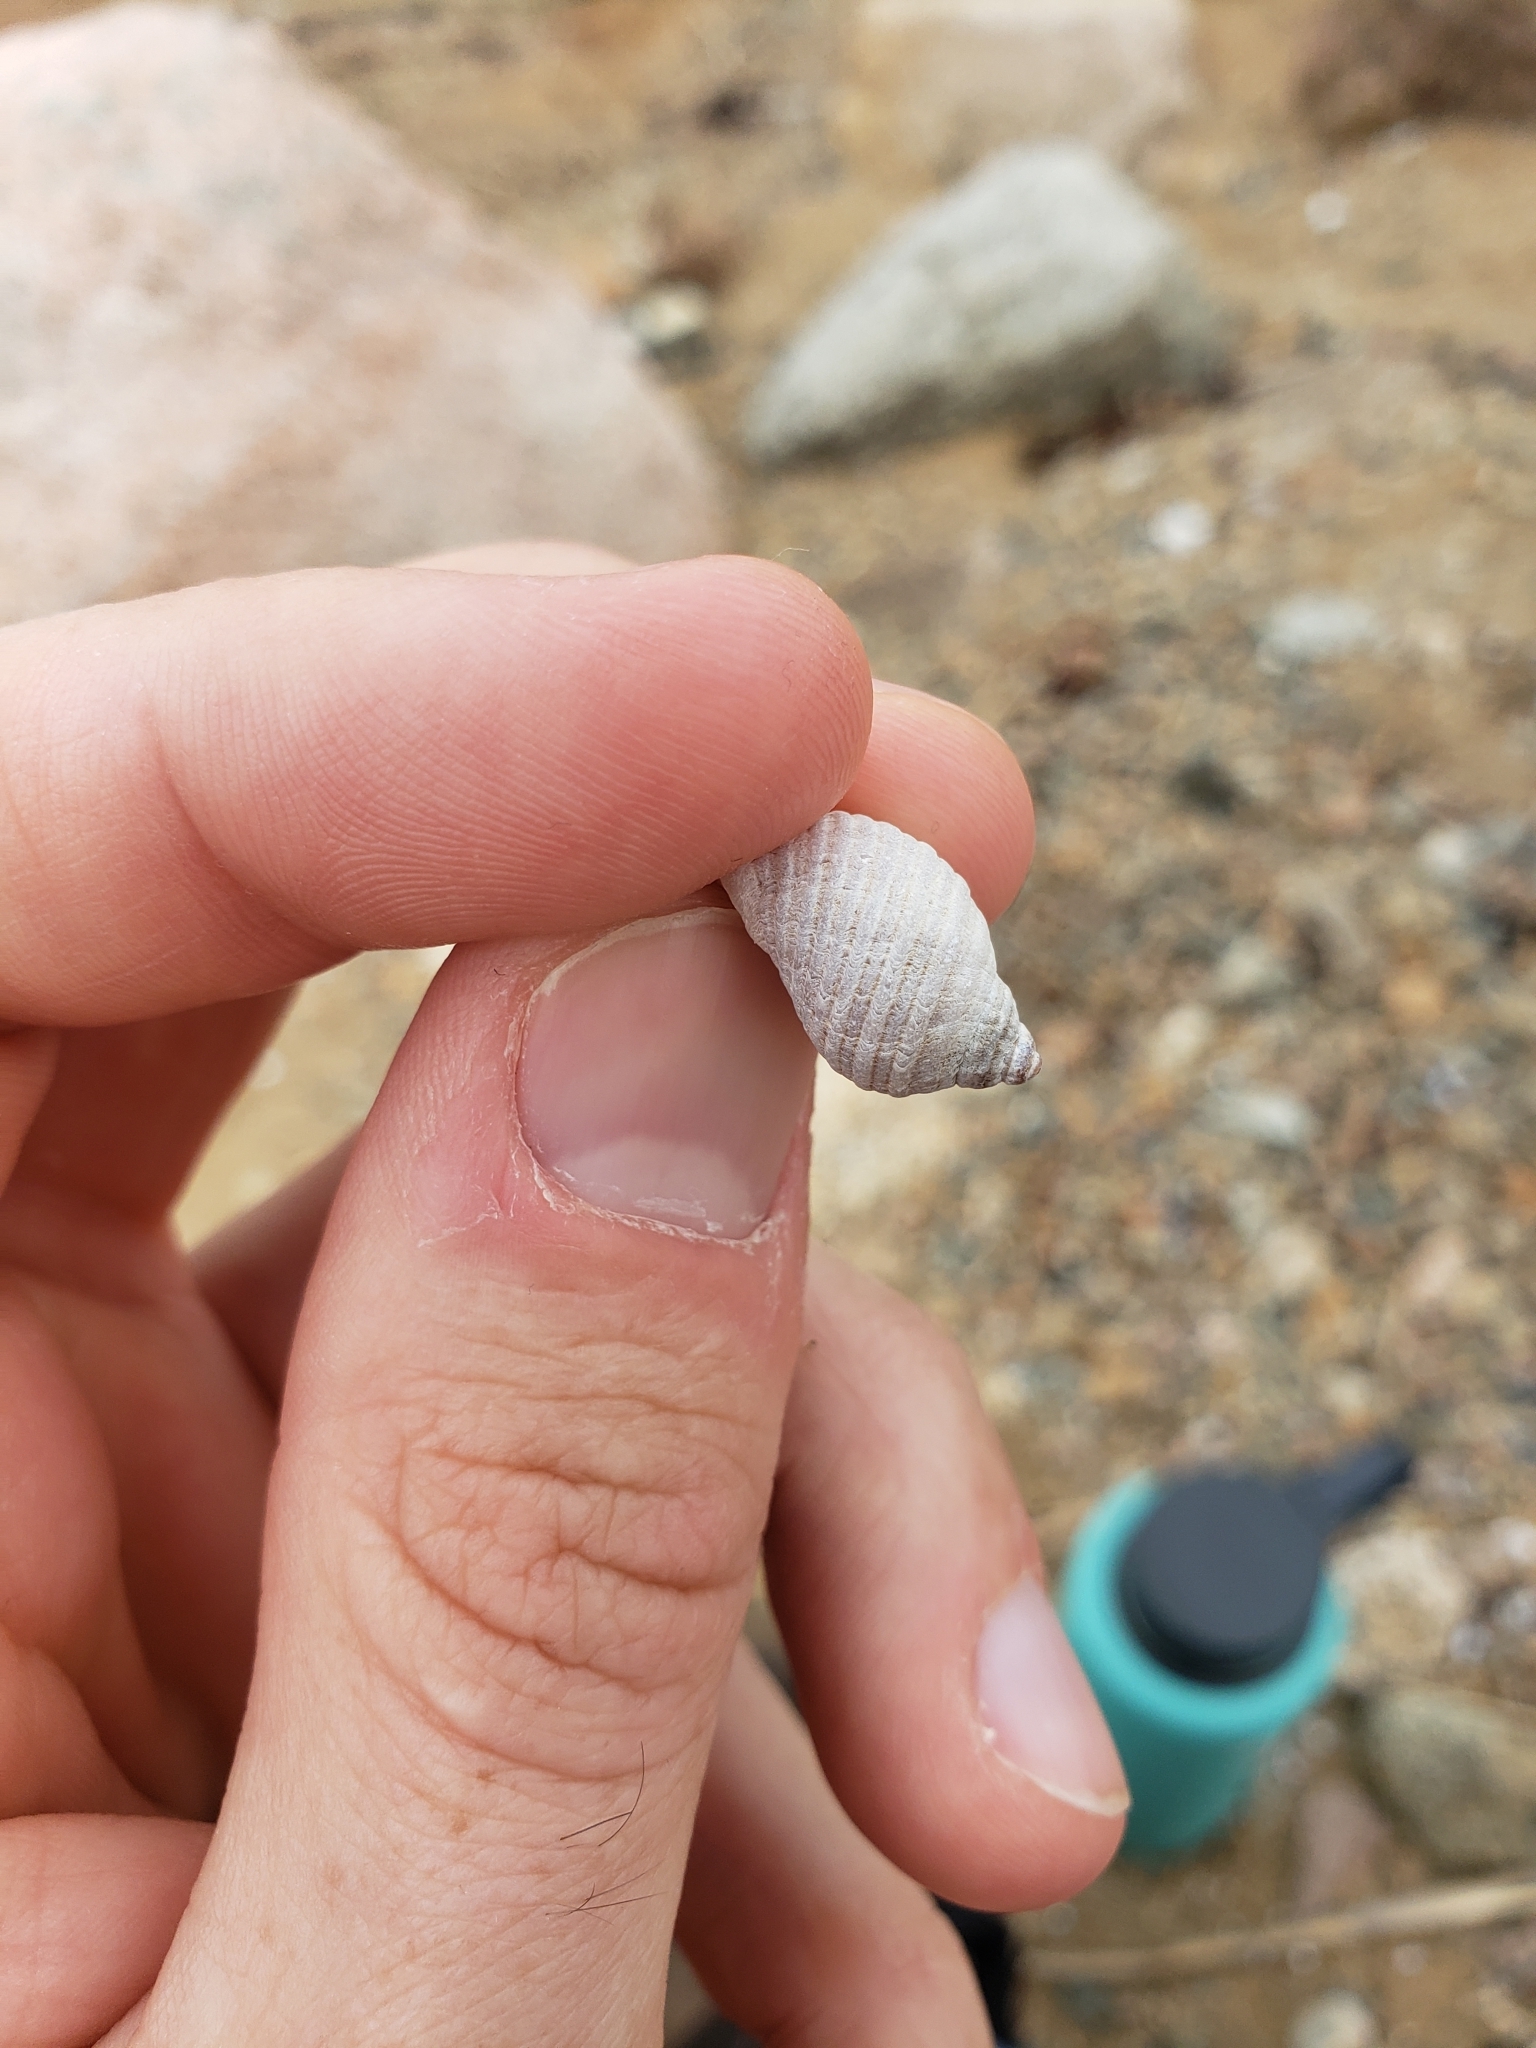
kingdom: Animalia
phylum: Mollusca
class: Gastropoda
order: Neogastropoda
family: Muricidae
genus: Nucella
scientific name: Nucella lapillus
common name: Dog whelk
